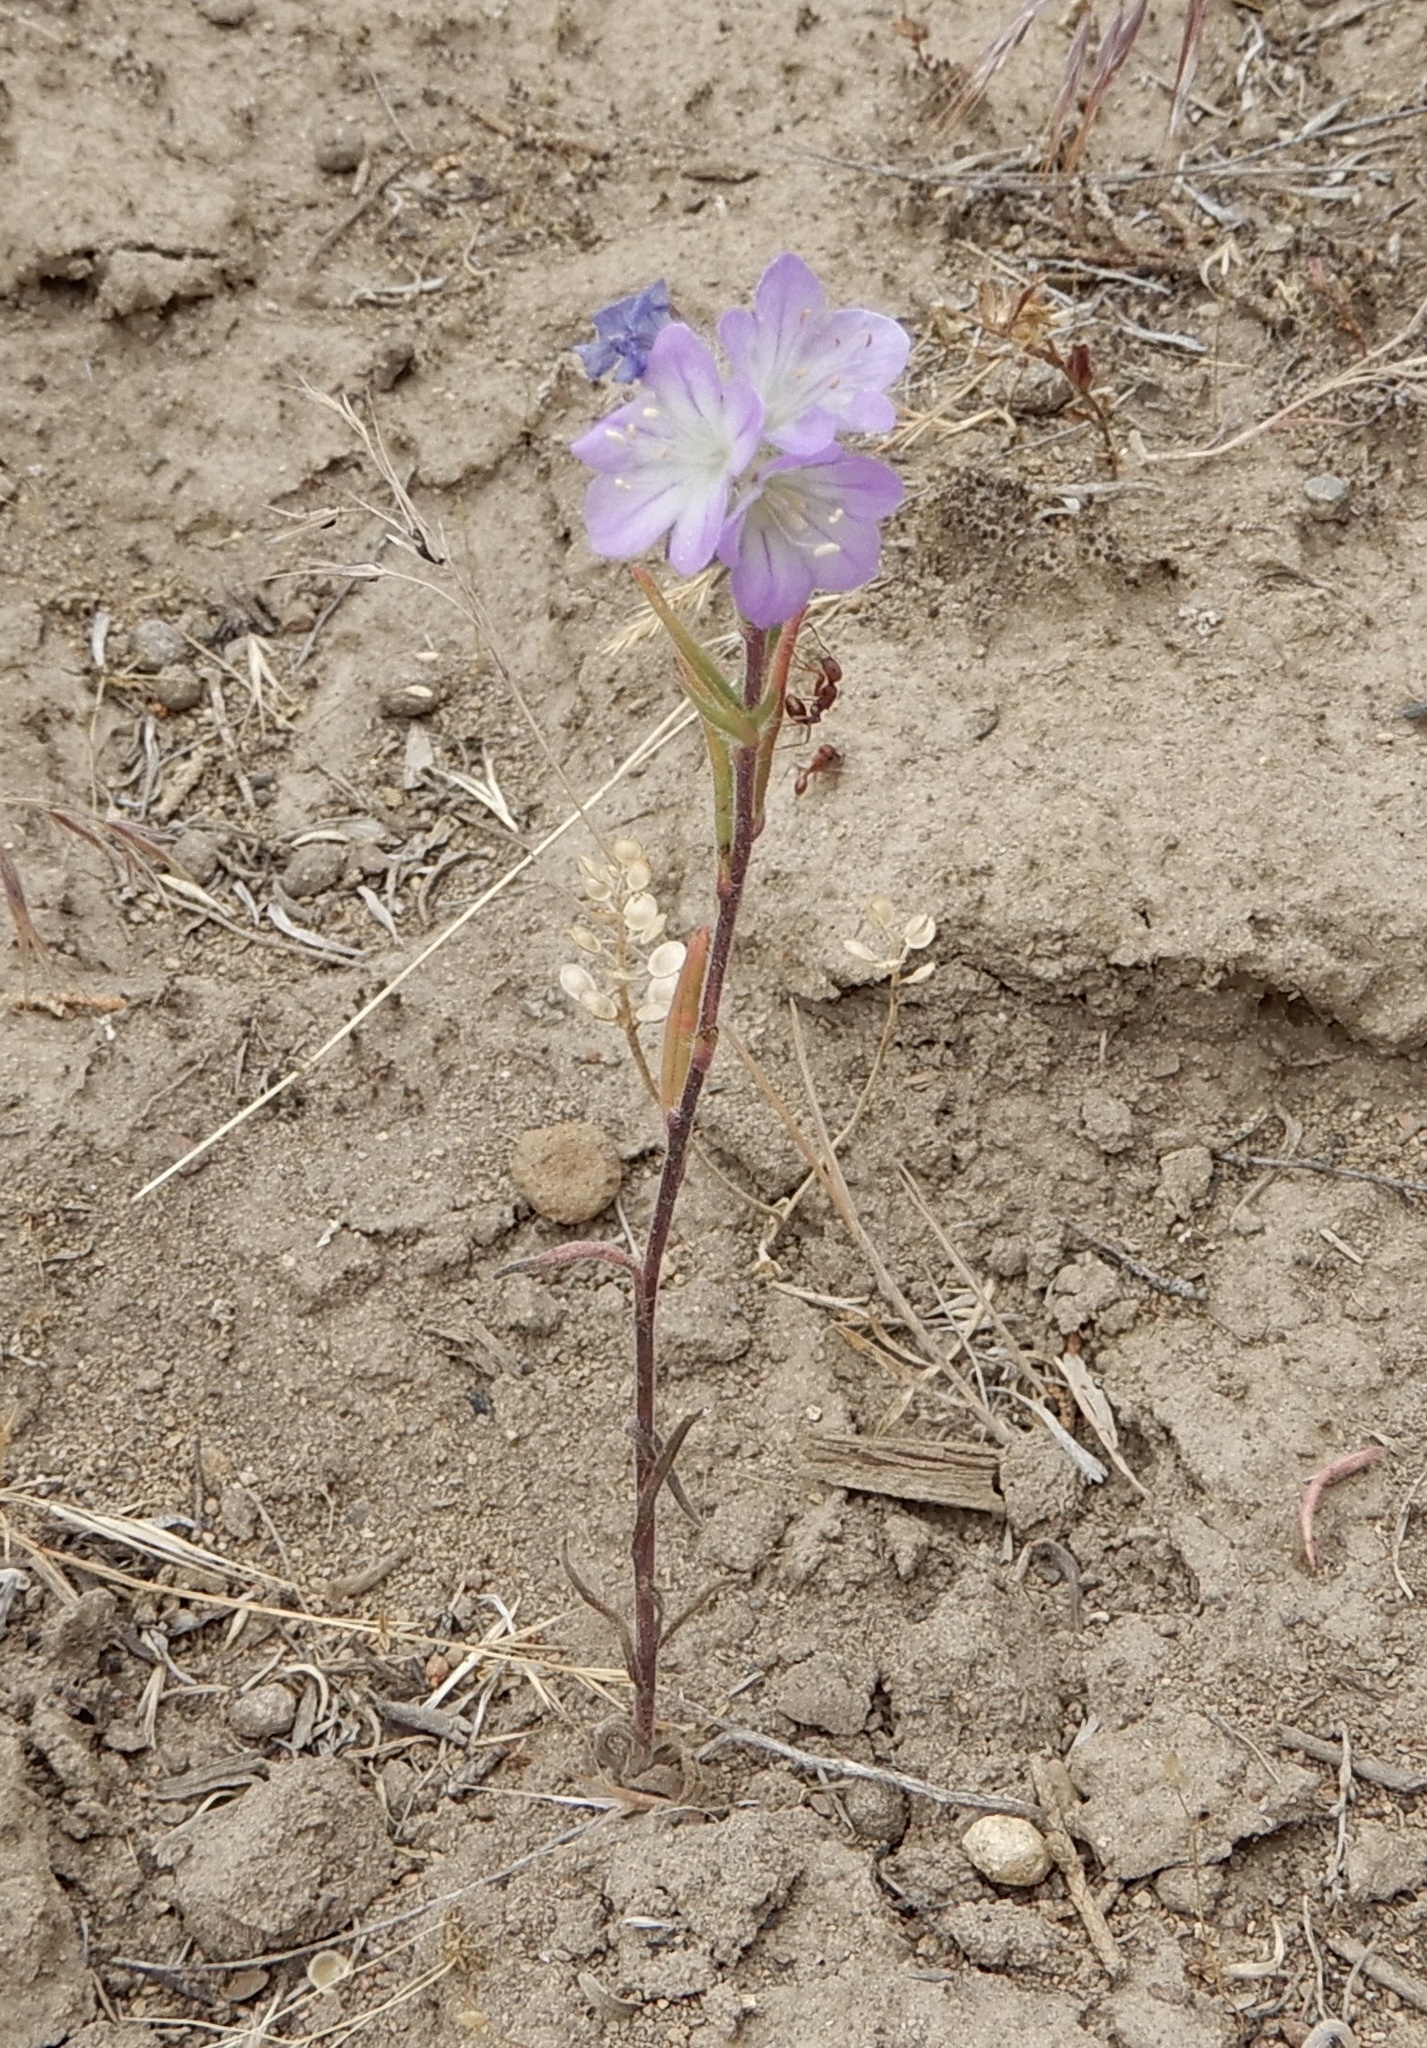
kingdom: Plantae
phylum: Tracheophyta
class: Magnoliopsida
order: Boraginales
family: Hydrophyllaceae
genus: Phacelia
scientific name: Phacelia linearis
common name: Linear-leaved phacelia
